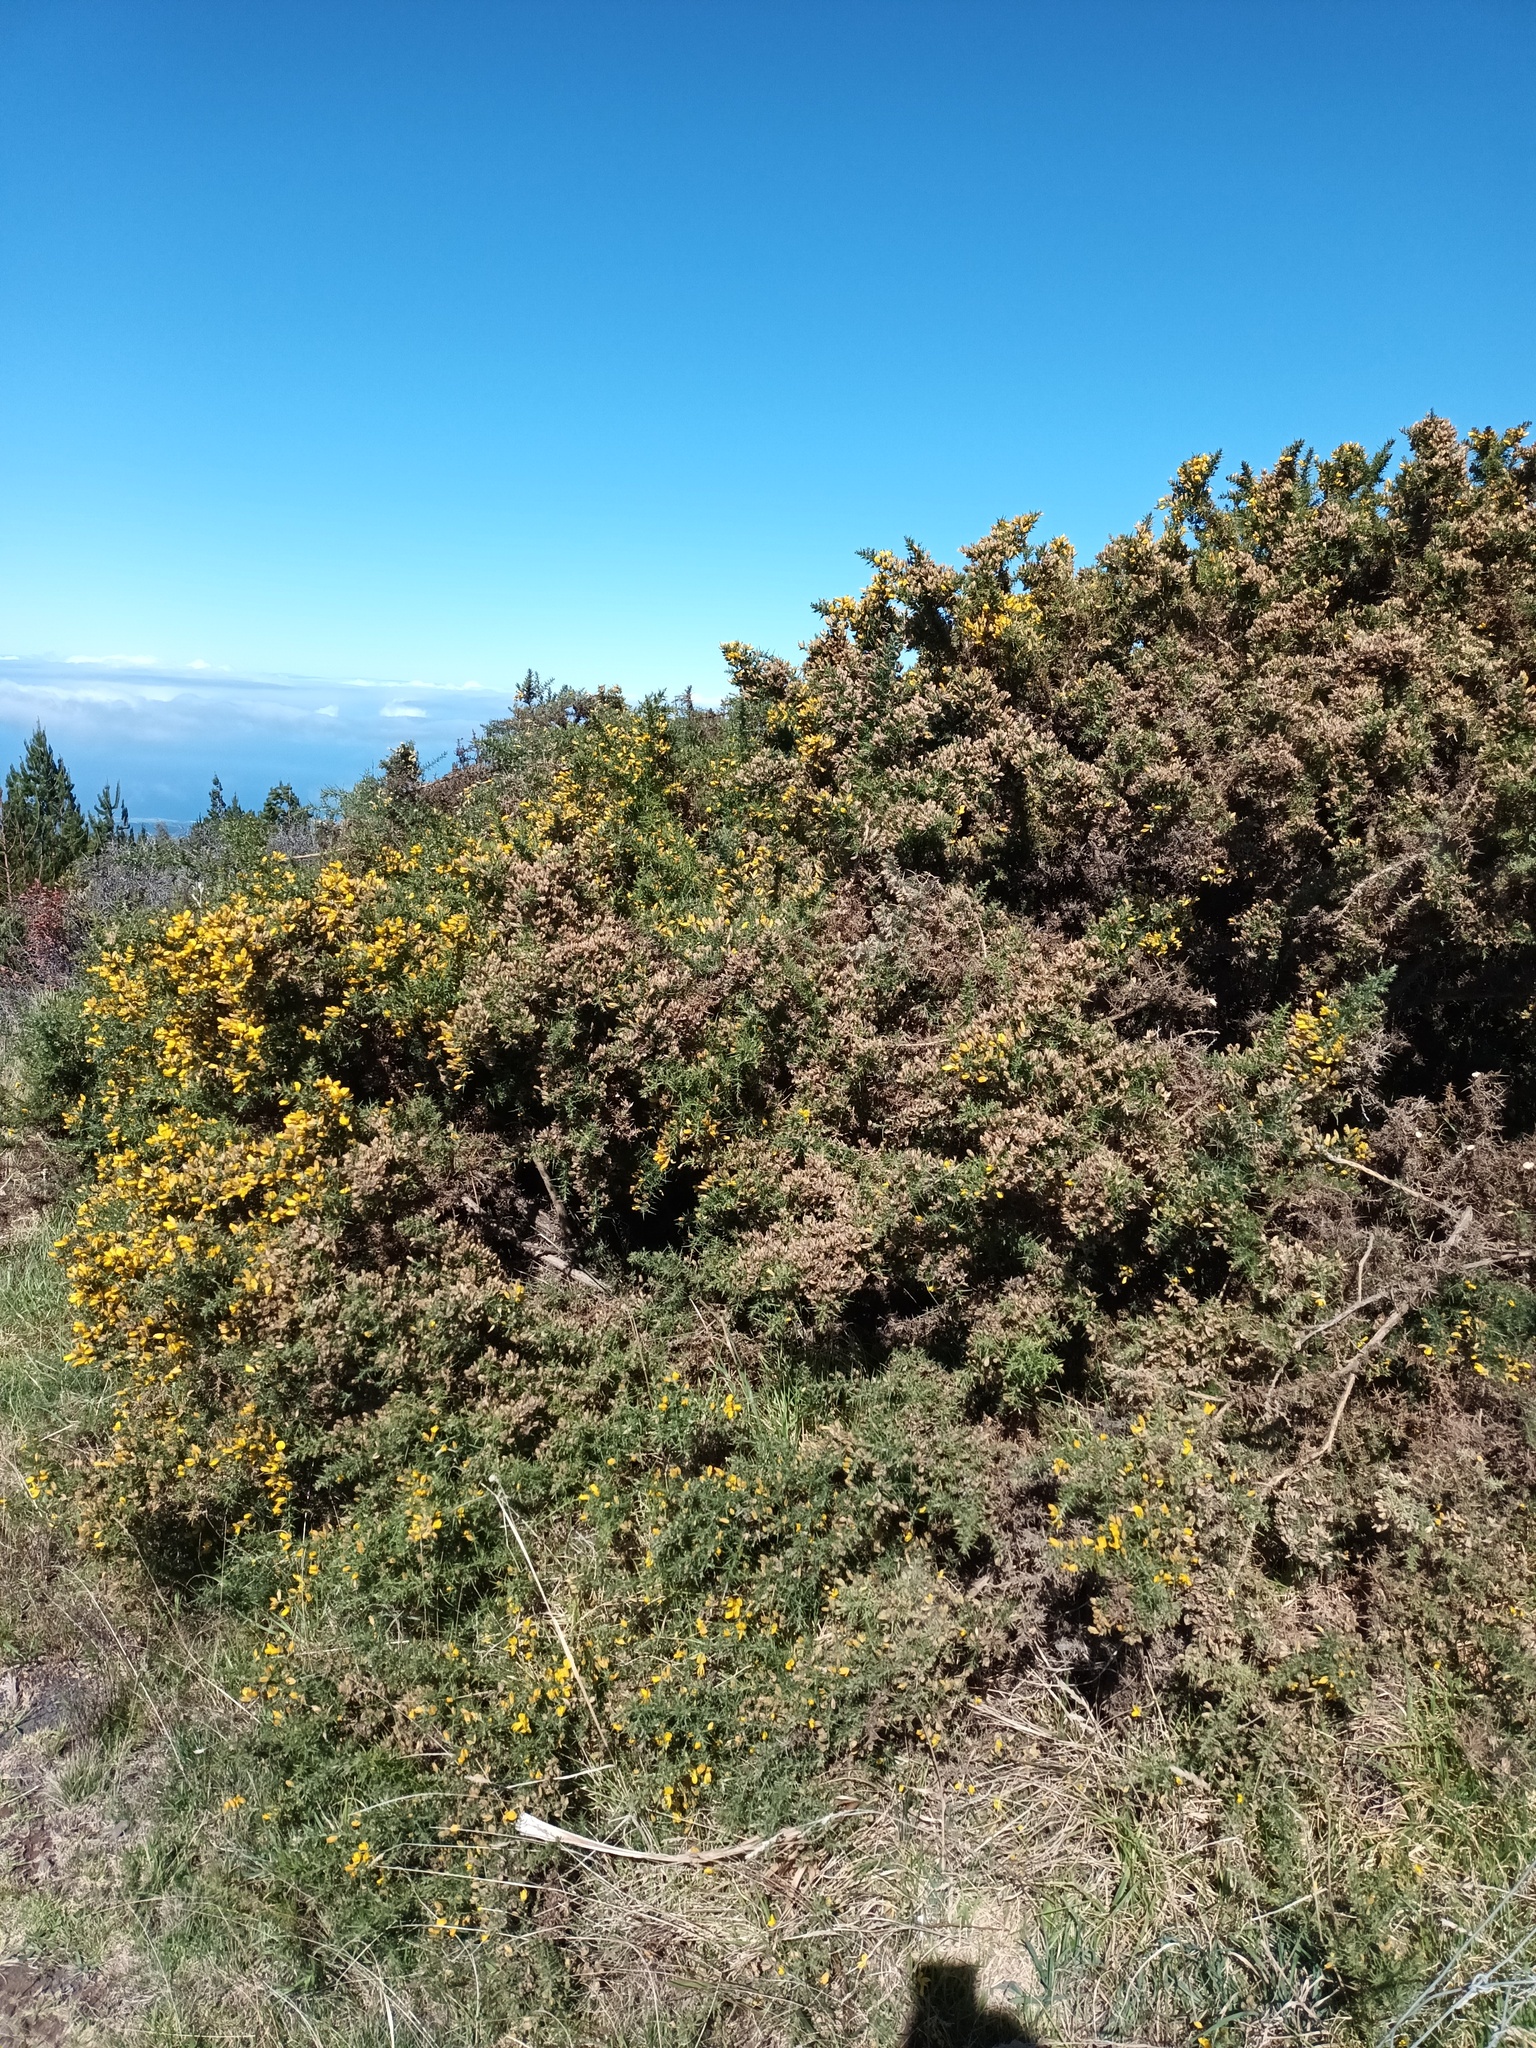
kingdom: Plantae
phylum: Tracheophyta
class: Magnoliopsida
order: Fabales
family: Fabaceae
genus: Ulex
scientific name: Ulex europaeus
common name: Common gorse
